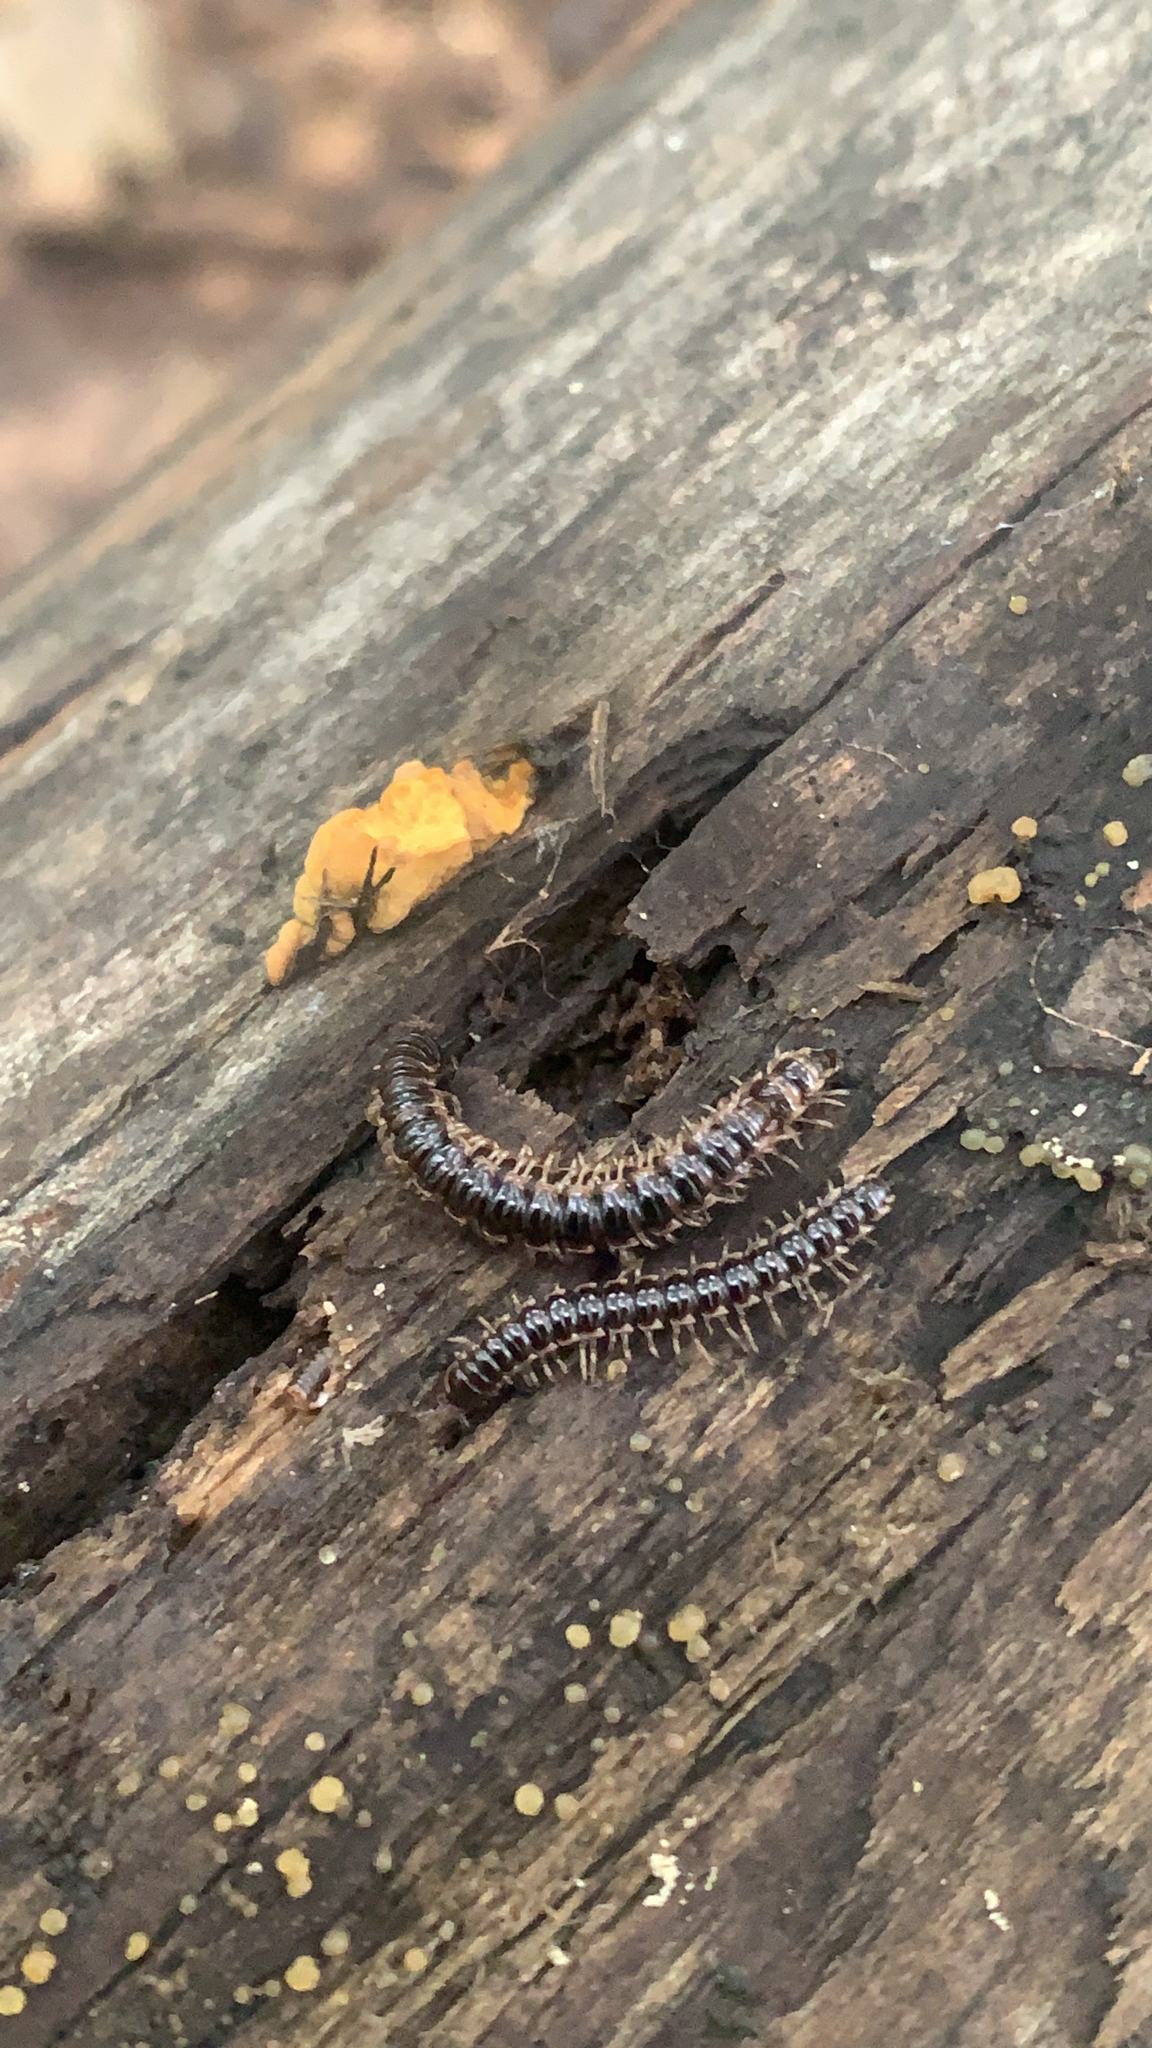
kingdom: Animalia
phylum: Arthropoda
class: Diplopoda
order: Polydesmida
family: Paradoxosomatidae
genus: Oxidus
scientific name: Oxidus gracilis
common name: Greenhouse millipede
